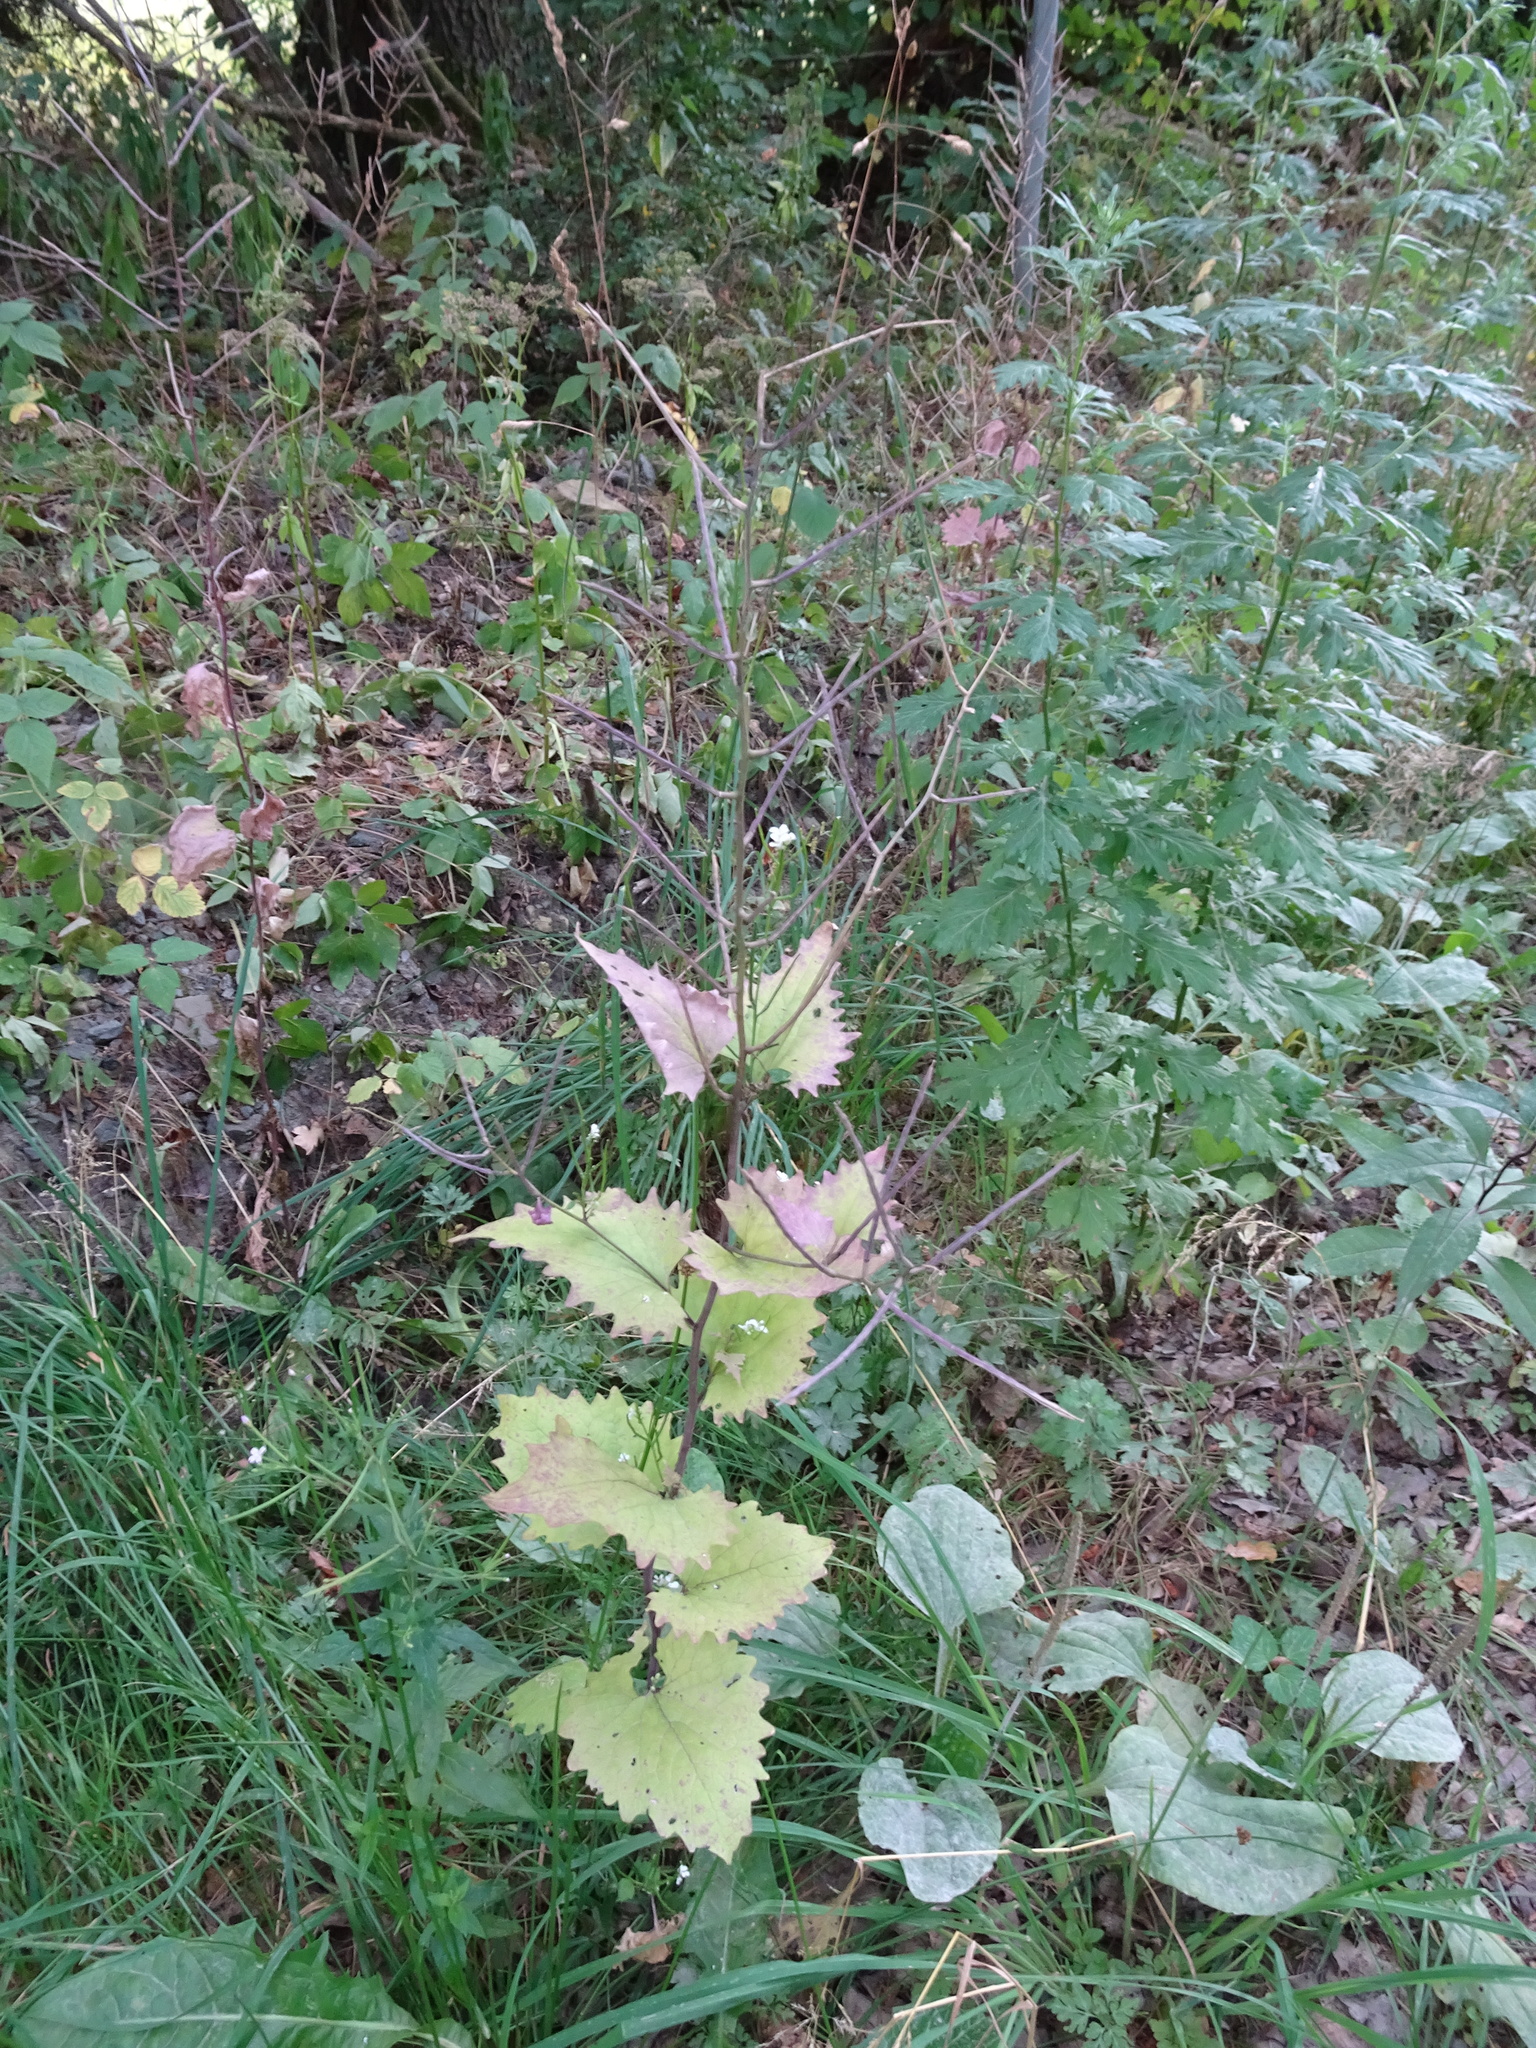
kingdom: Plantae
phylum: Tracheophyta
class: Magnoliopsida
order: Brassicales
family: Brassicaceae
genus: Alliaria
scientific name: Alliaria petiolata
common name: Garlic mustard
